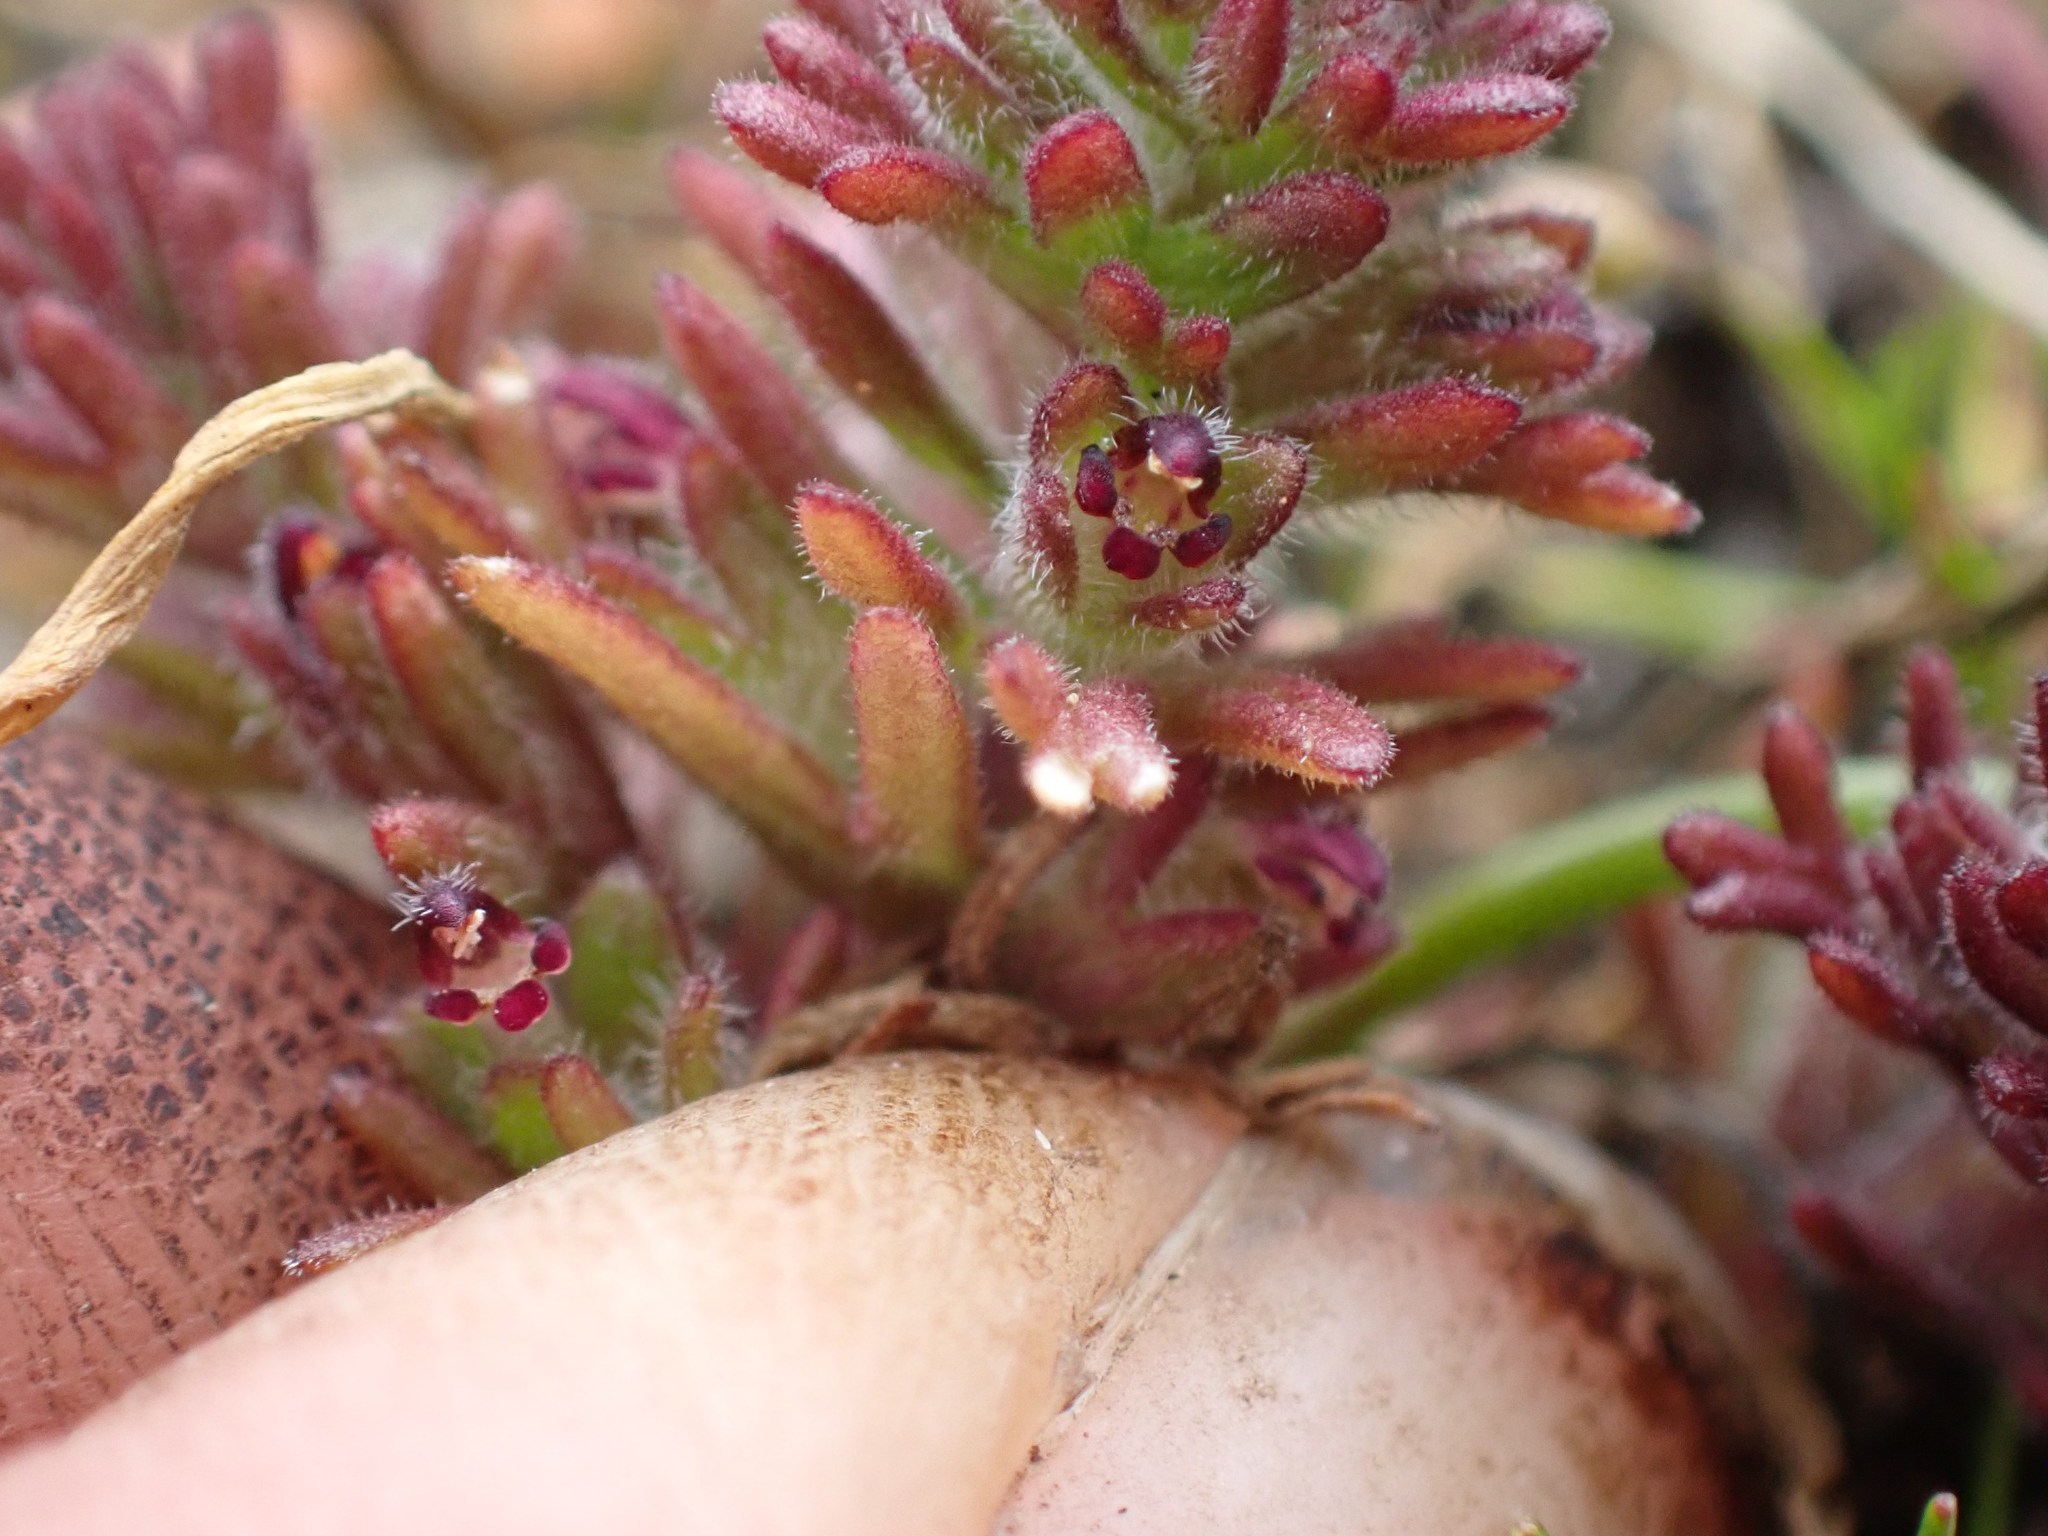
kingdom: Plantae
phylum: Tracheophyta
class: Magnoliopsida
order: Lamiales
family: Orobanchaceae
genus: Triphysaria
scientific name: Triphysaria pusilla
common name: Dwarf false owl-clover
